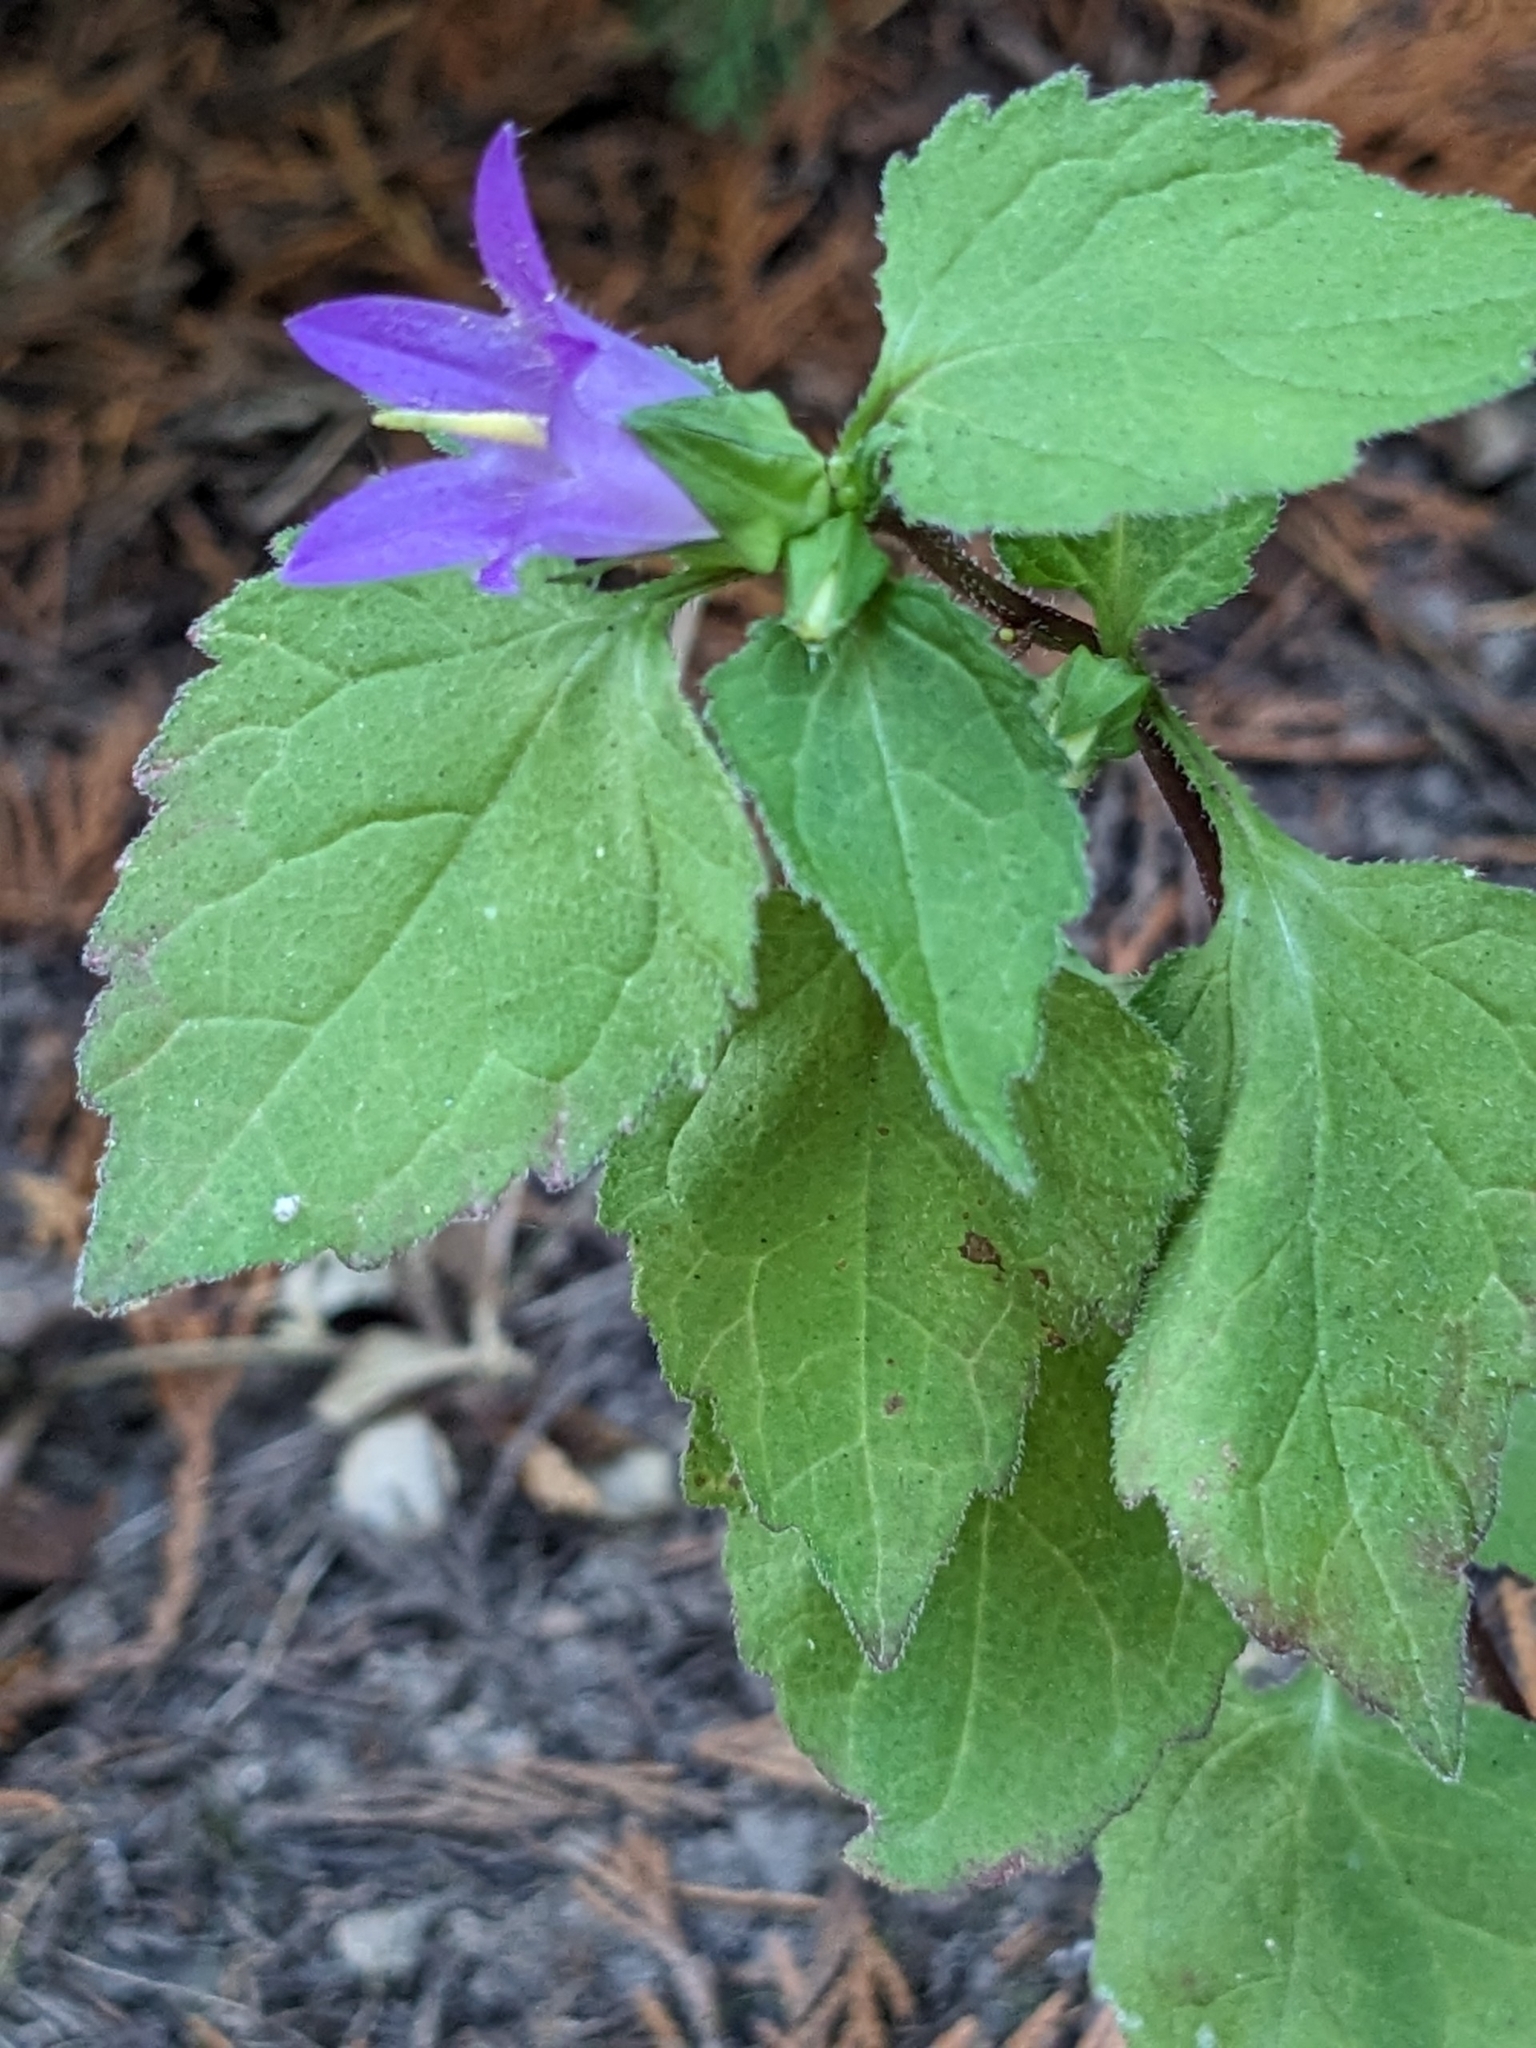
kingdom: Plantae
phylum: Tracheophyta
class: Magnoliopsida
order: Asterales
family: Campanulaceae
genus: Campanula
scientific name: Campanula trachelium
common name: Nettle-leaved bellflower
